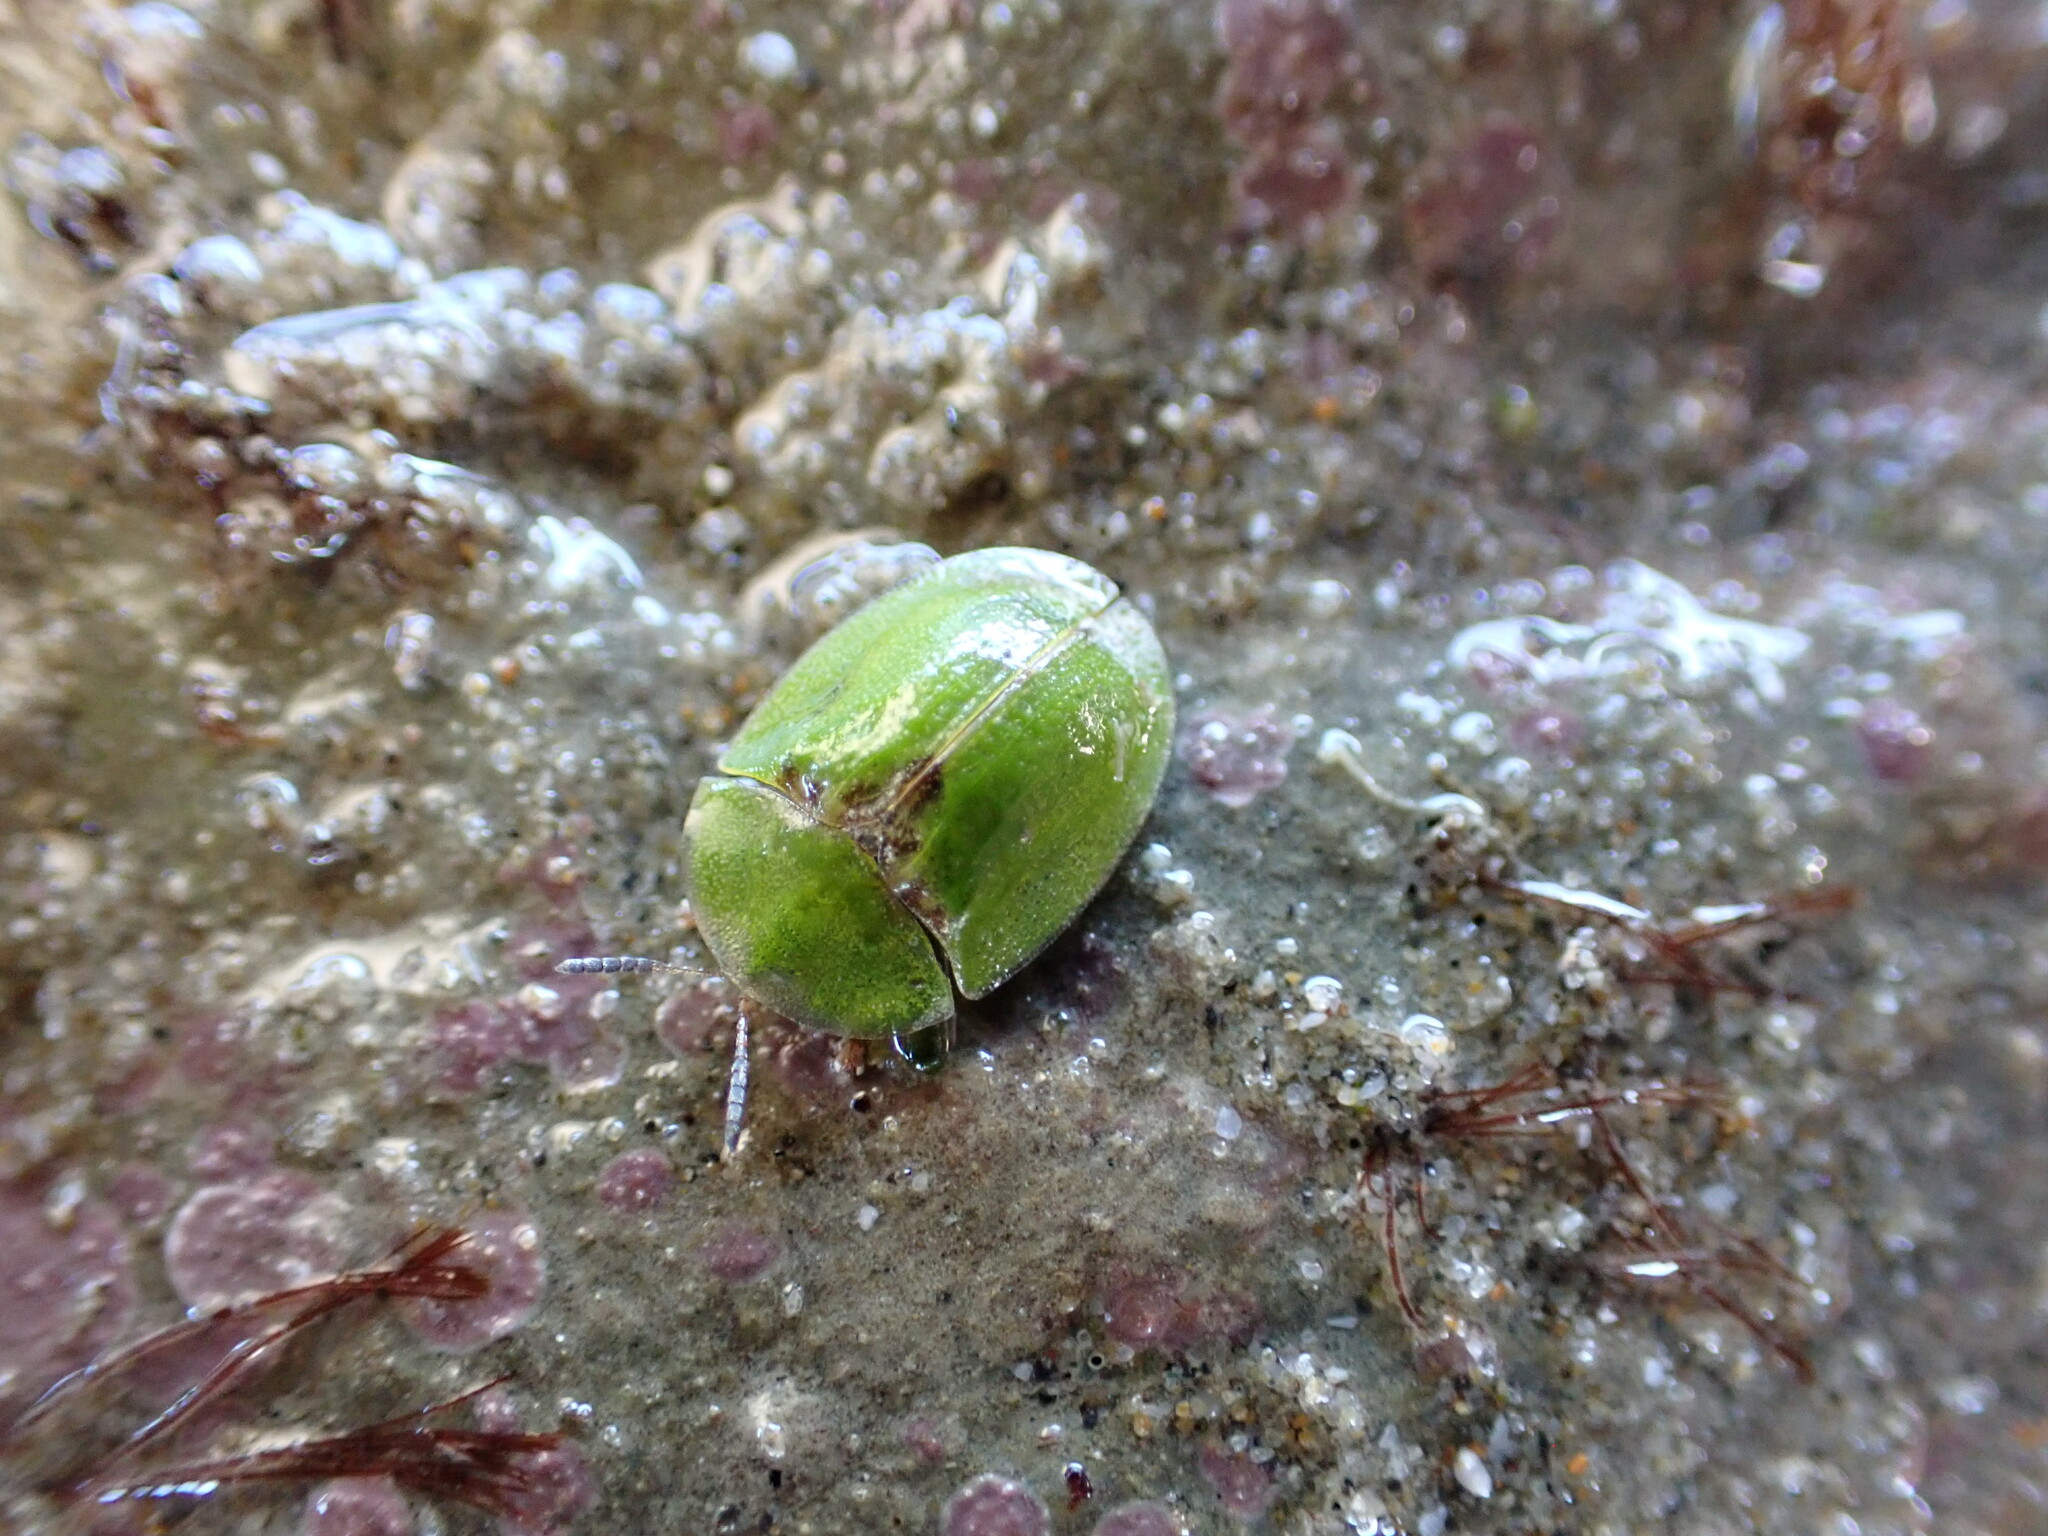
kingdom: Animalia
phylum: Arthropoda
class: Insecta
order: Coleoptera
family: Chrysomelidae
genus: Cassida
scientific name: Cassida rubiginosa
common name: Thistle tortoise beetle
